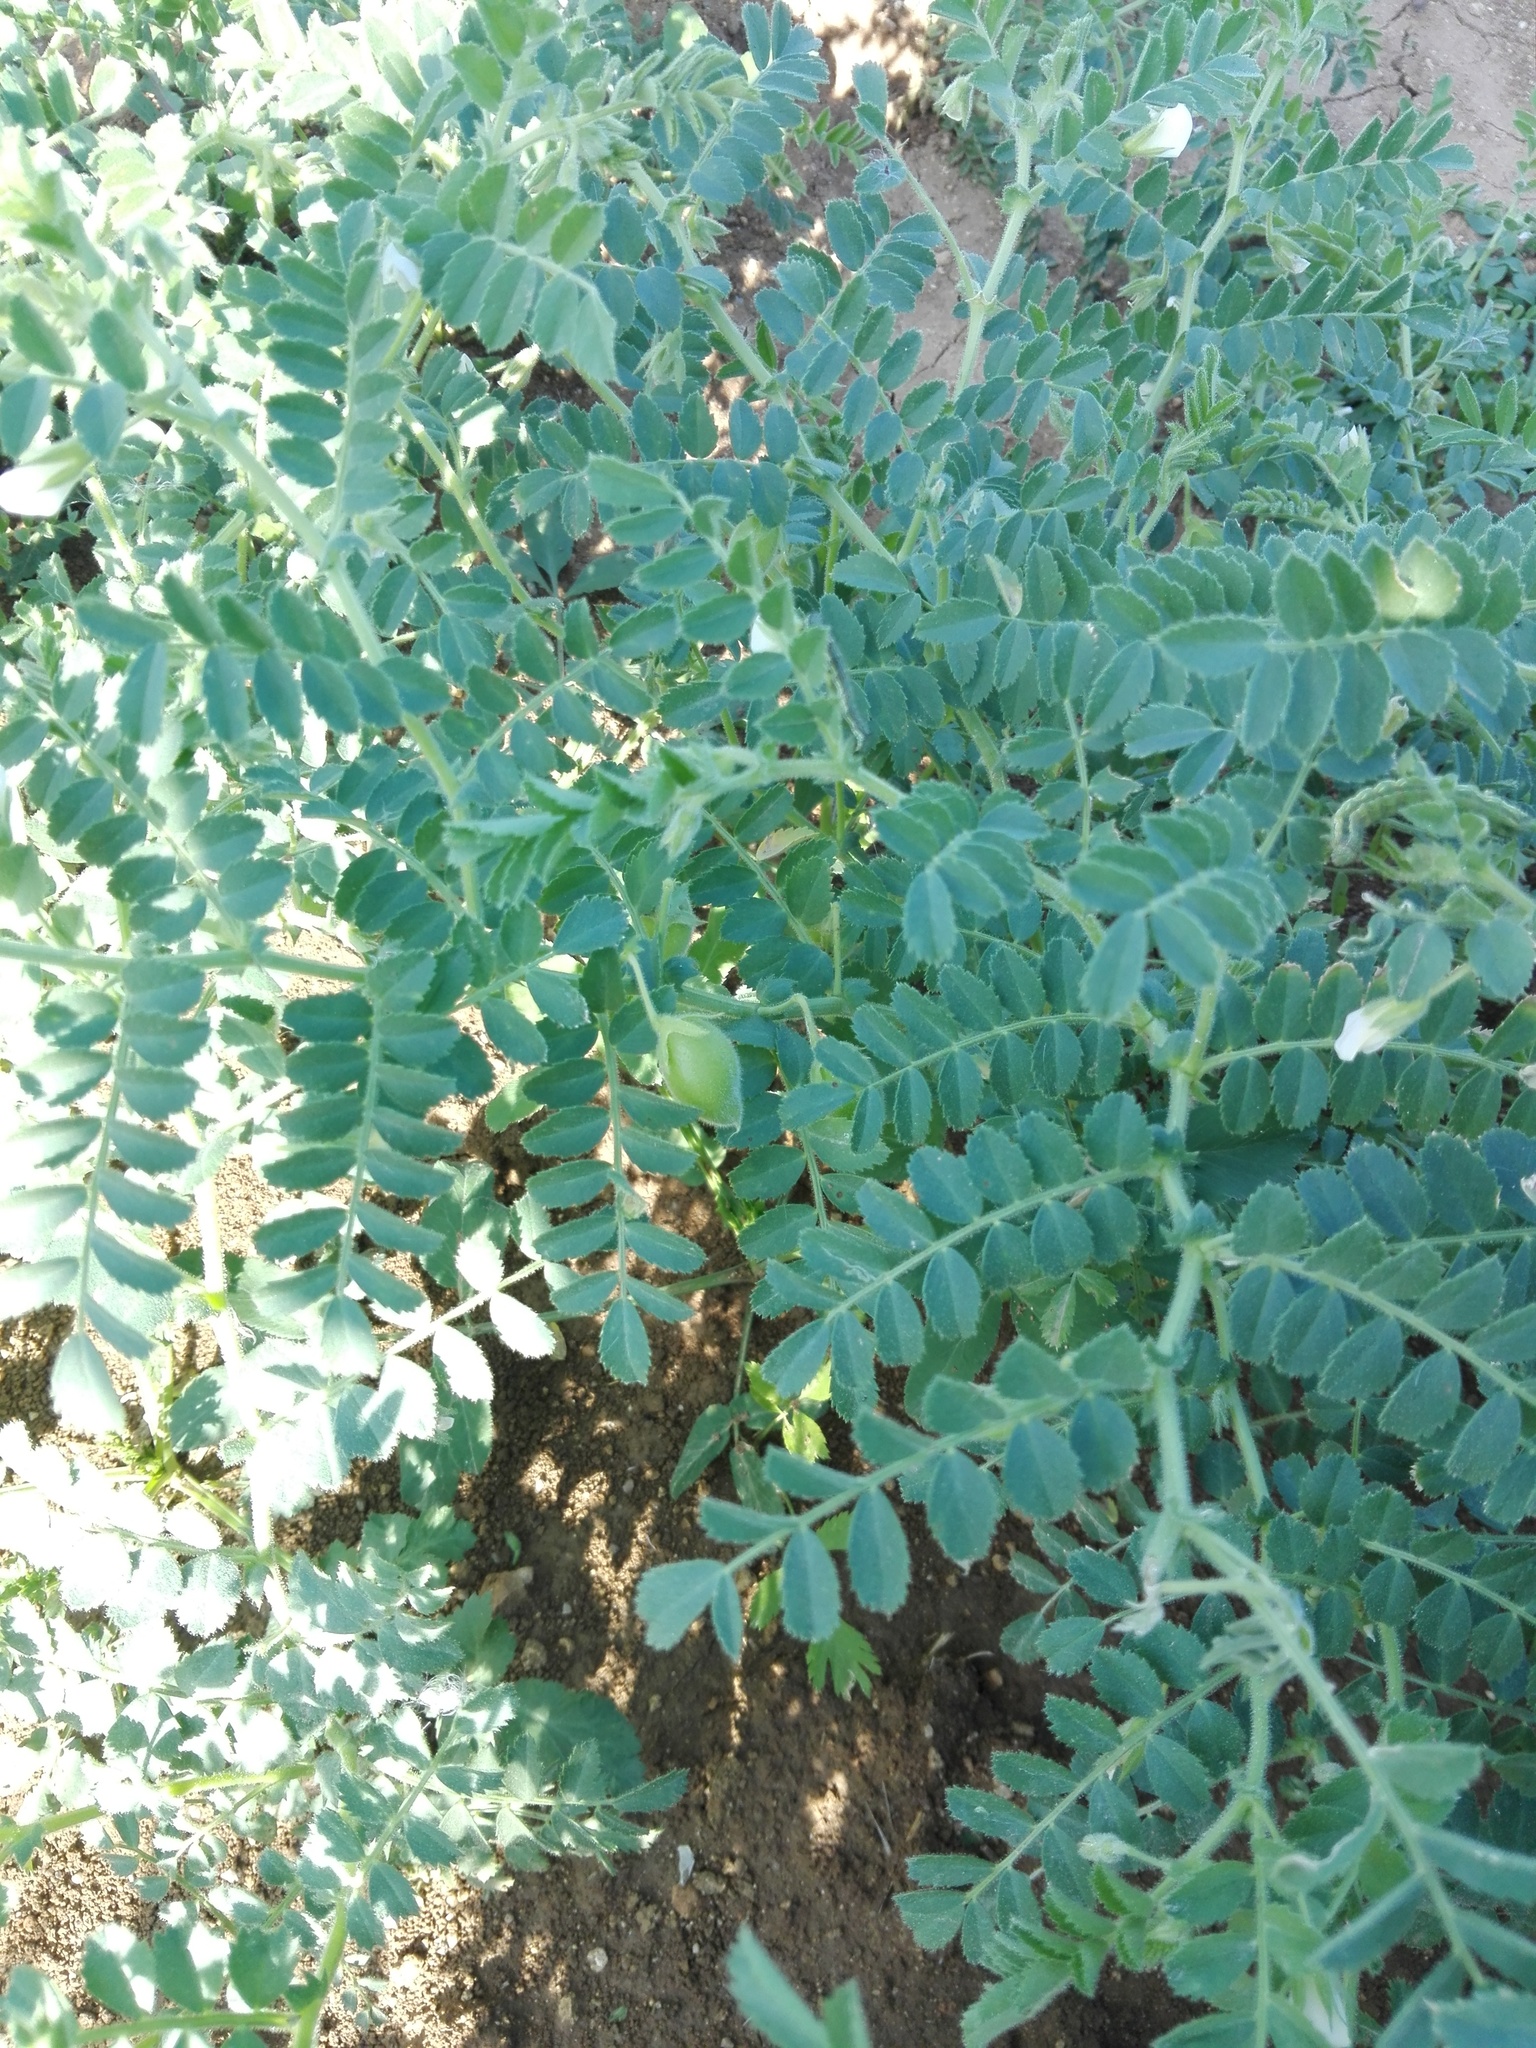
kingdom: Plantae
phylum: Tracheophyta
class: Magnoliopsida
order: Fabales
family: Fabaceae
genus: Cicer
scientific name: Cicer arietinum
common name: Chick pea
